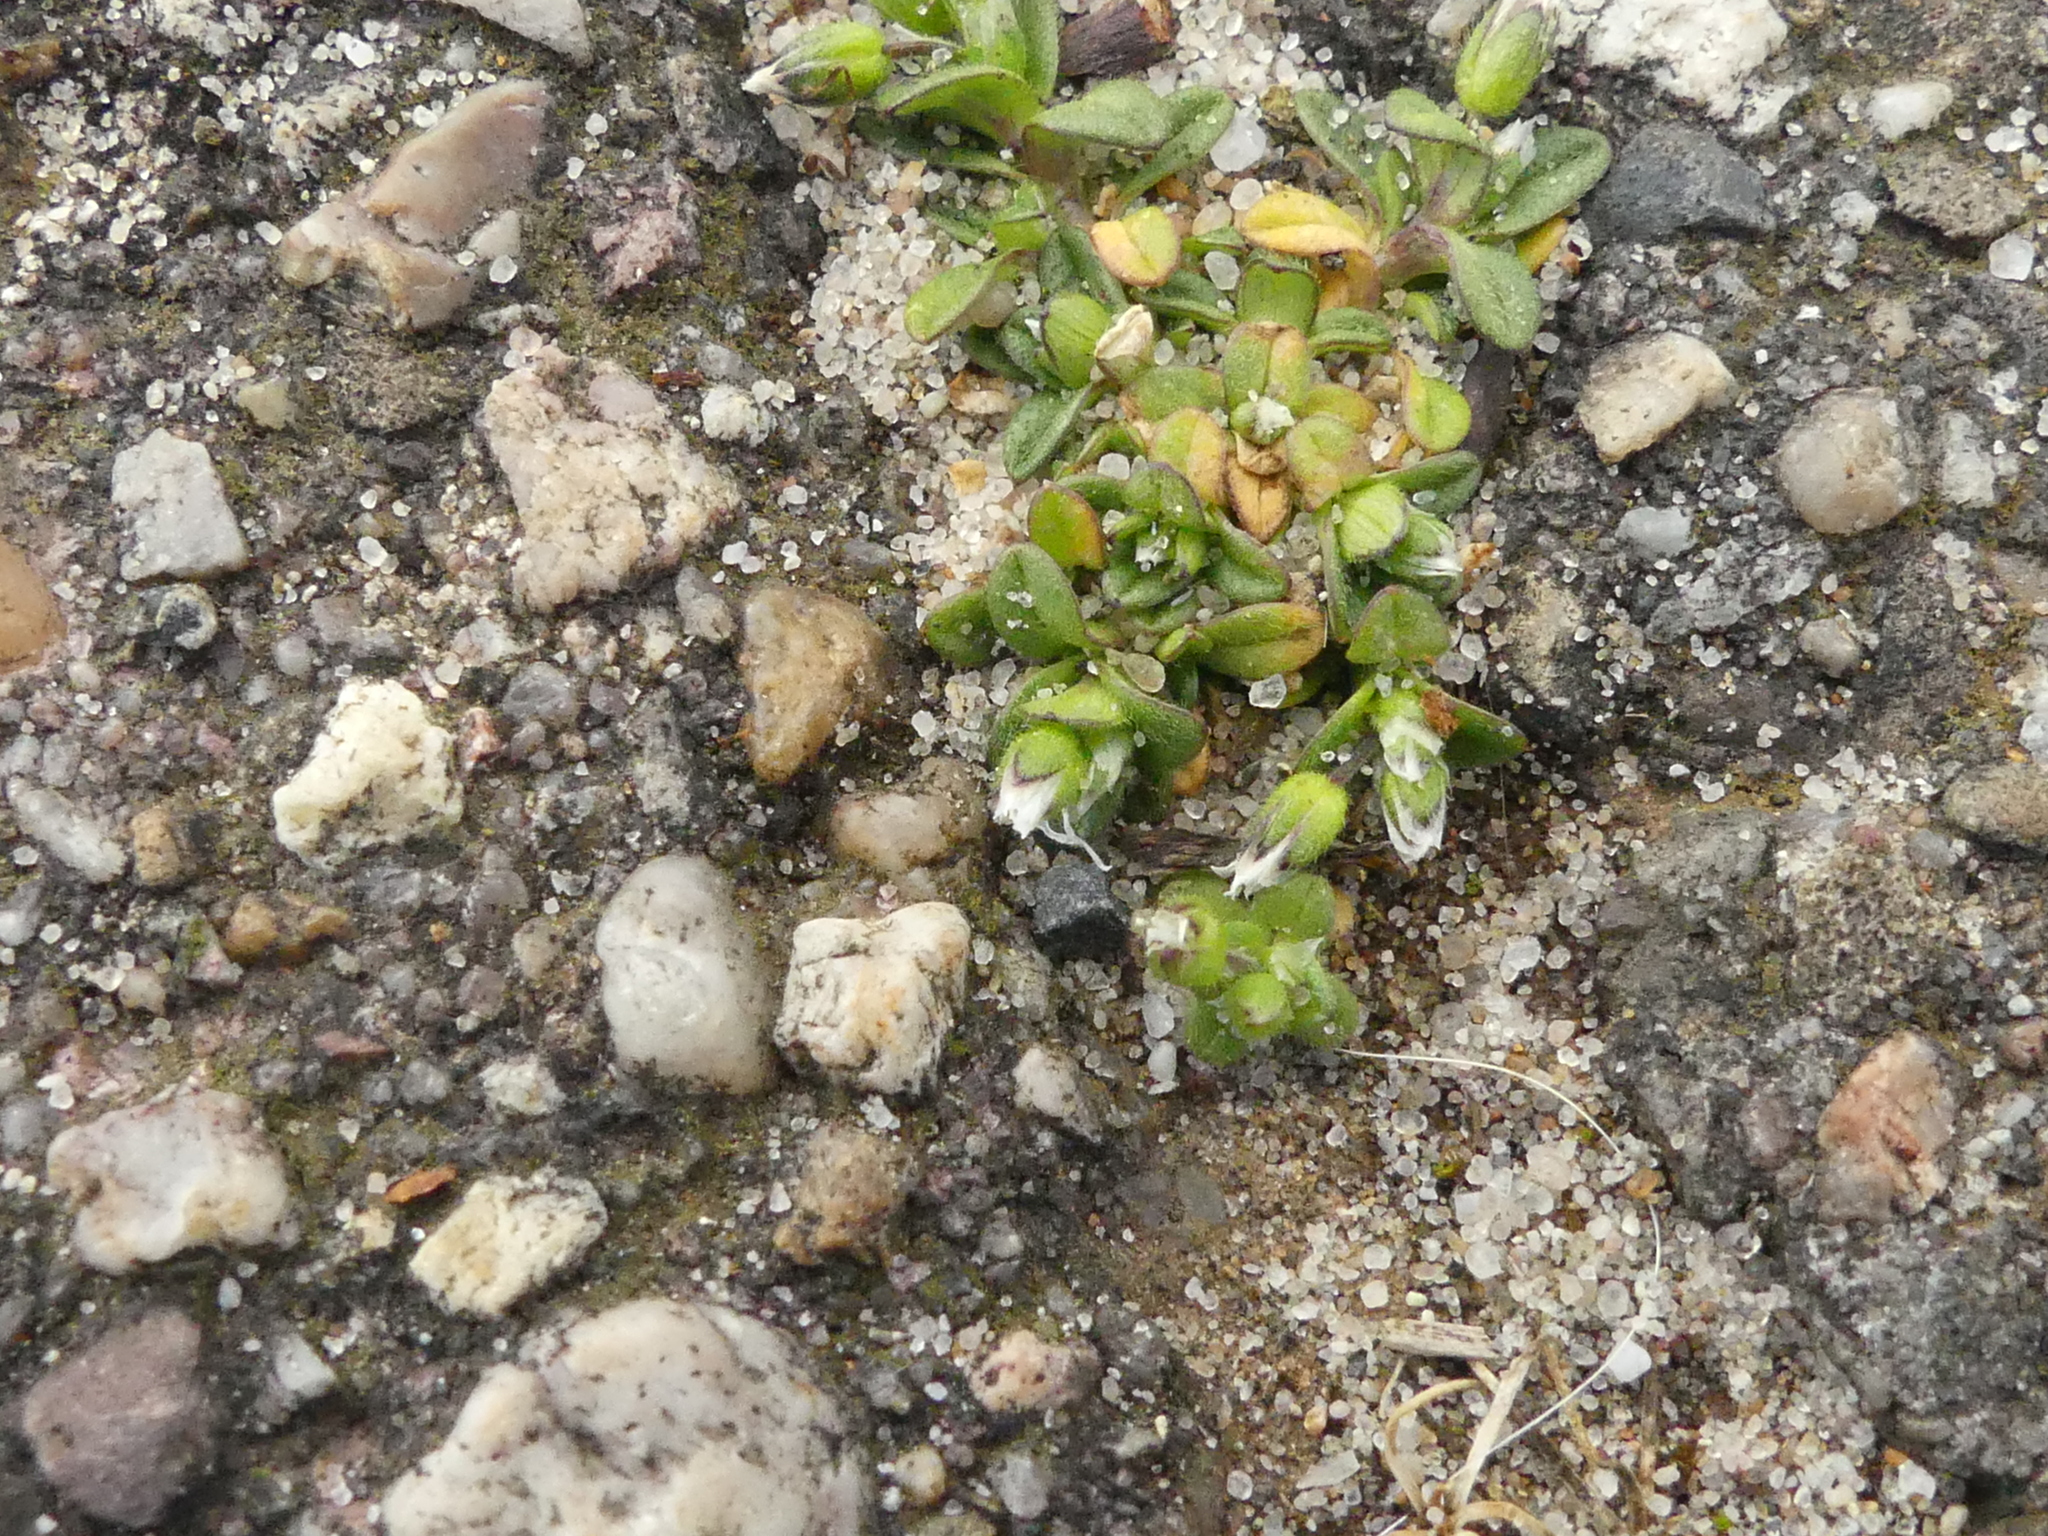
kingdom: Plantae
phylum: Tracheophyta
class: Magnoliopsida
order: Caryophyllales
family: Caryophyllaceae
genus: Cerastium
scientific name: Cerastium semidecandrum
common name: Little mouse-ear
